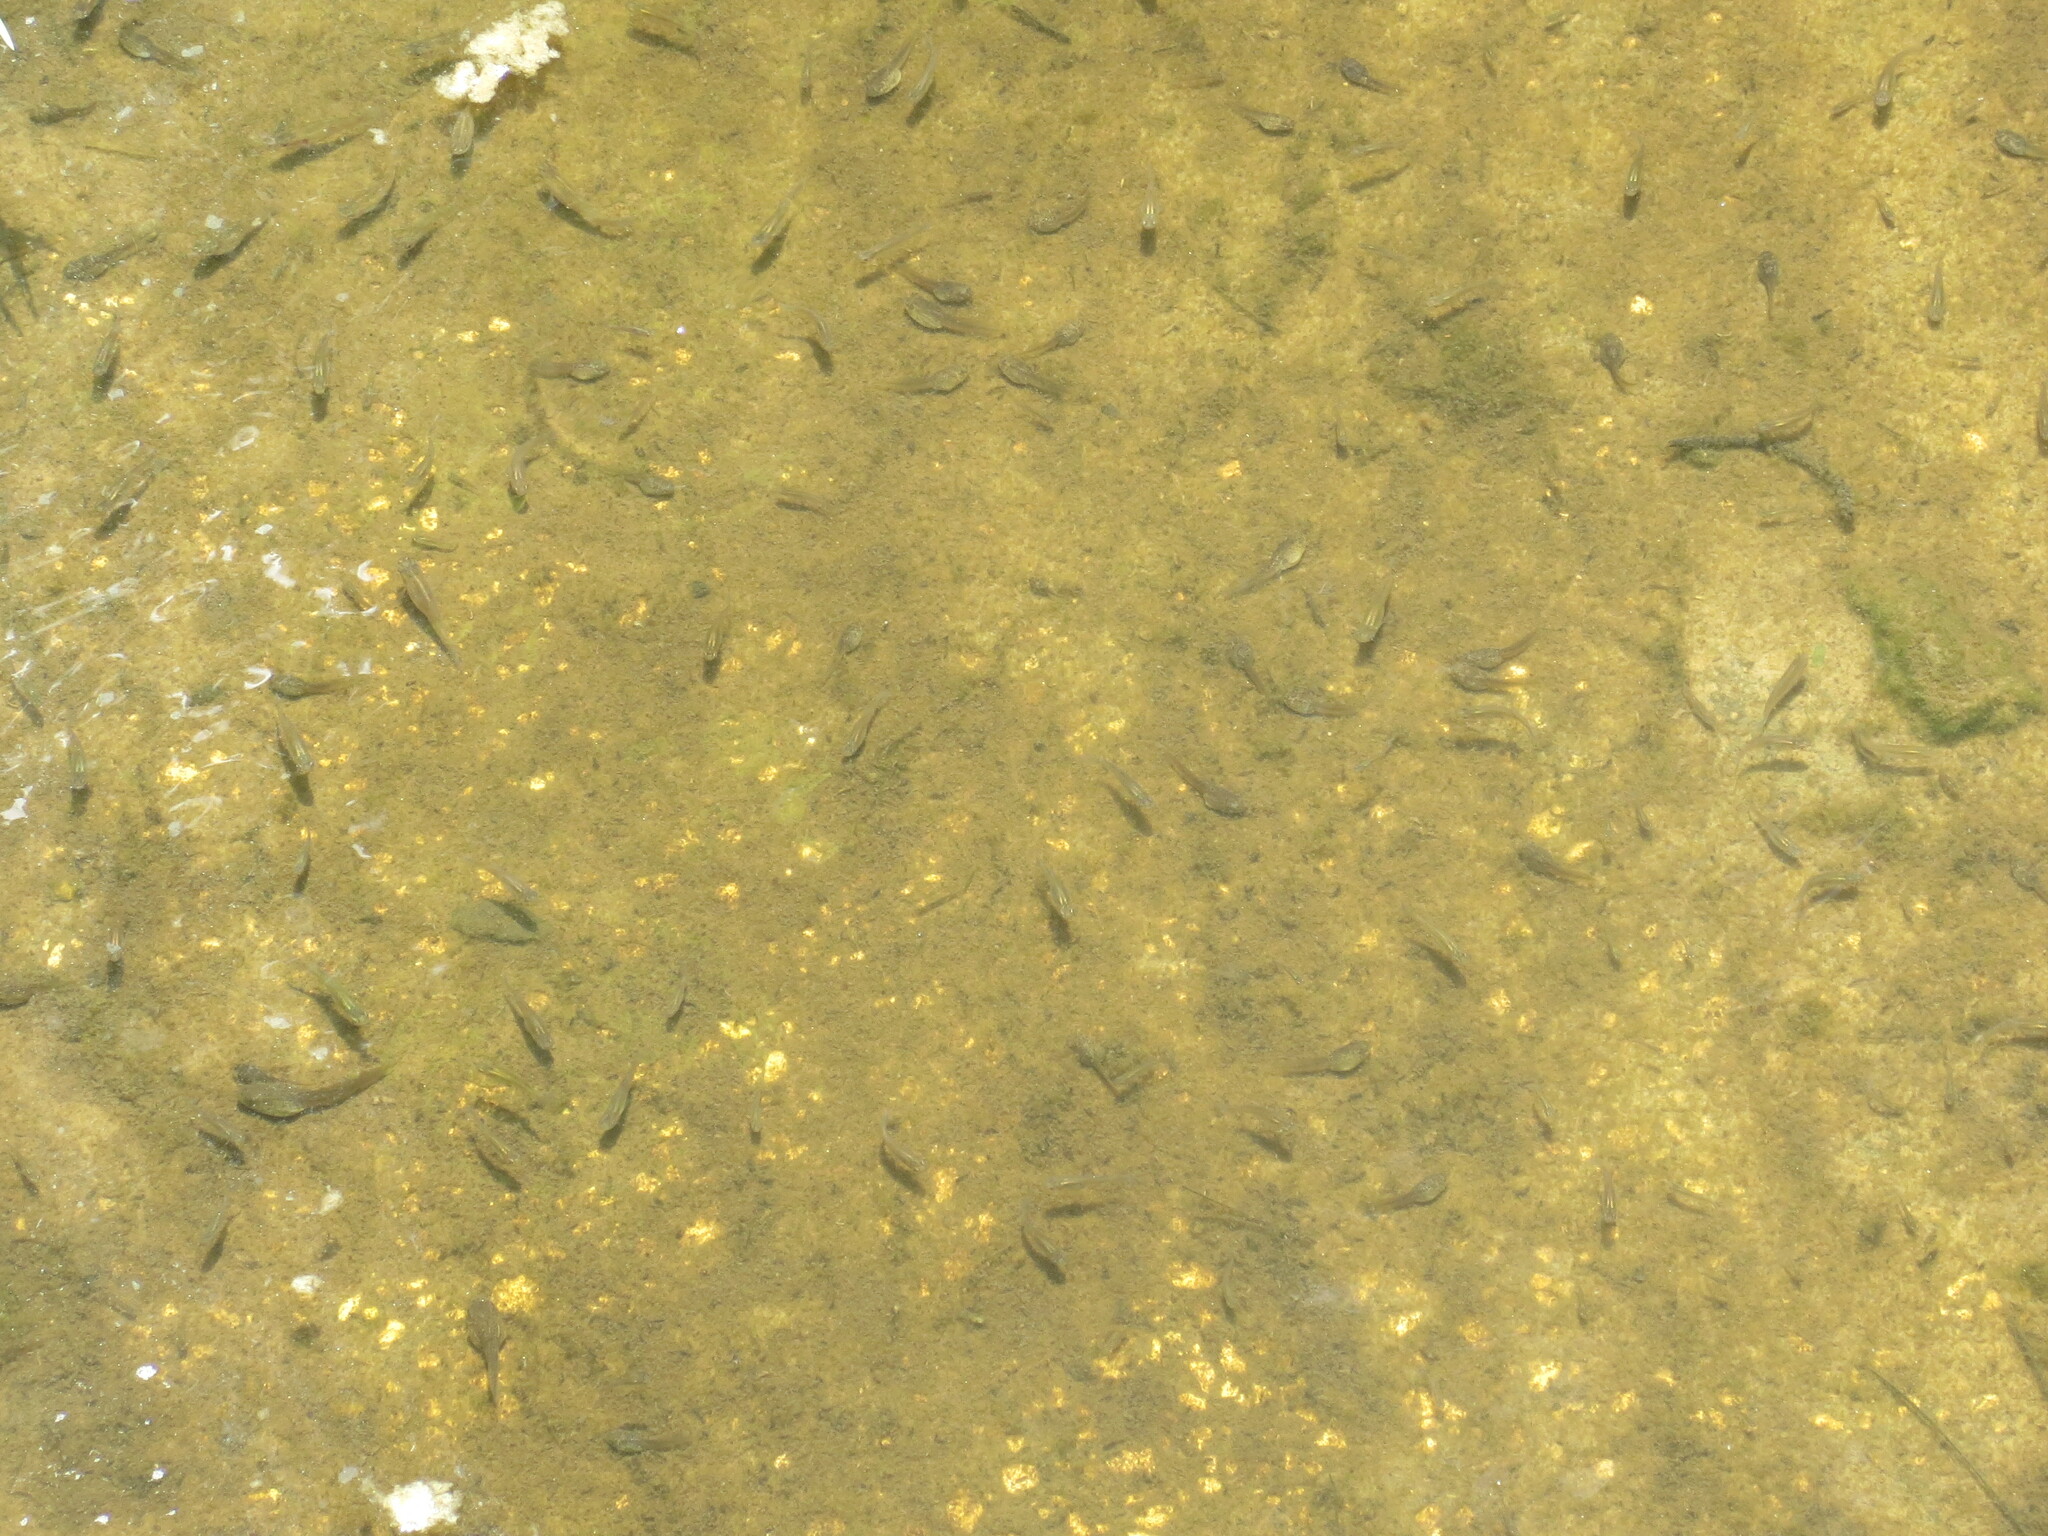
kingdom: Animalia
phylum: Chordata
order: Cyprinodontiformes
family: Poeciliidae
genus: Gambusia
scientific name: Gambusia holbrooki
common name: Eastern mosquitofish
